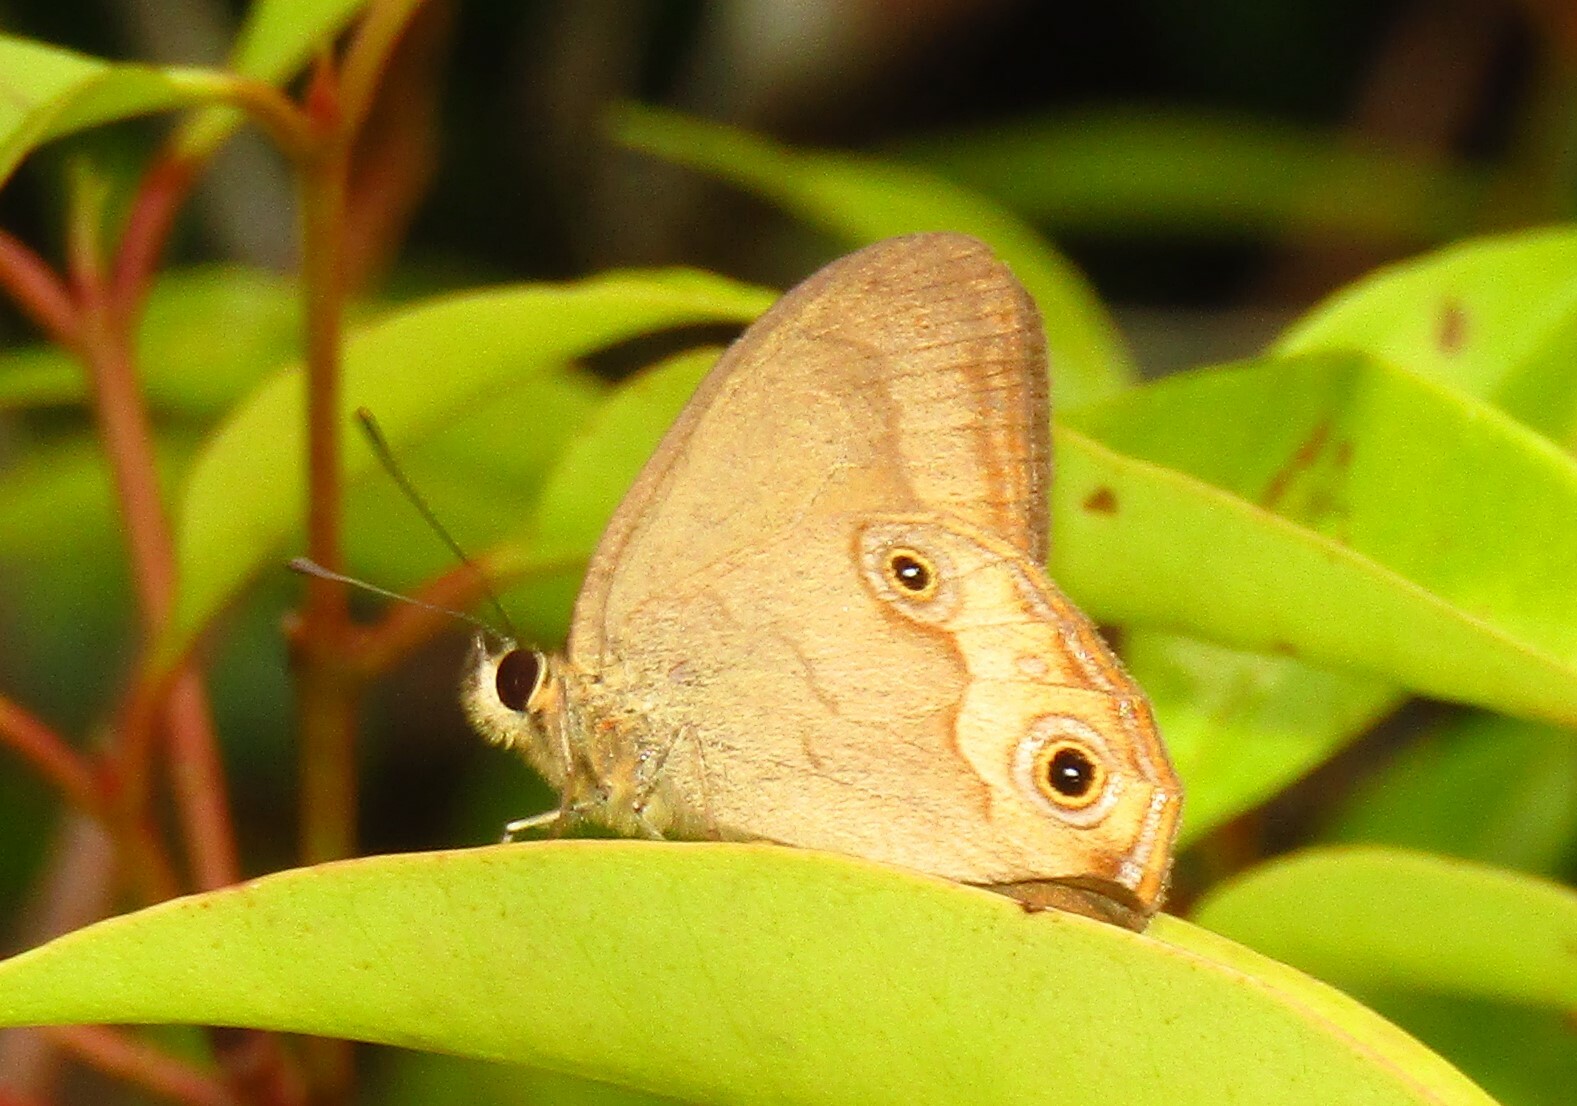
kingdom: Animalia
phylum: Arthropoda
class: Insecta
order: Lepidoptera
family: Nymphalidae
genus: Hypocysta
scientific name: Hypocysta metirius
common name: Brown ringlet
